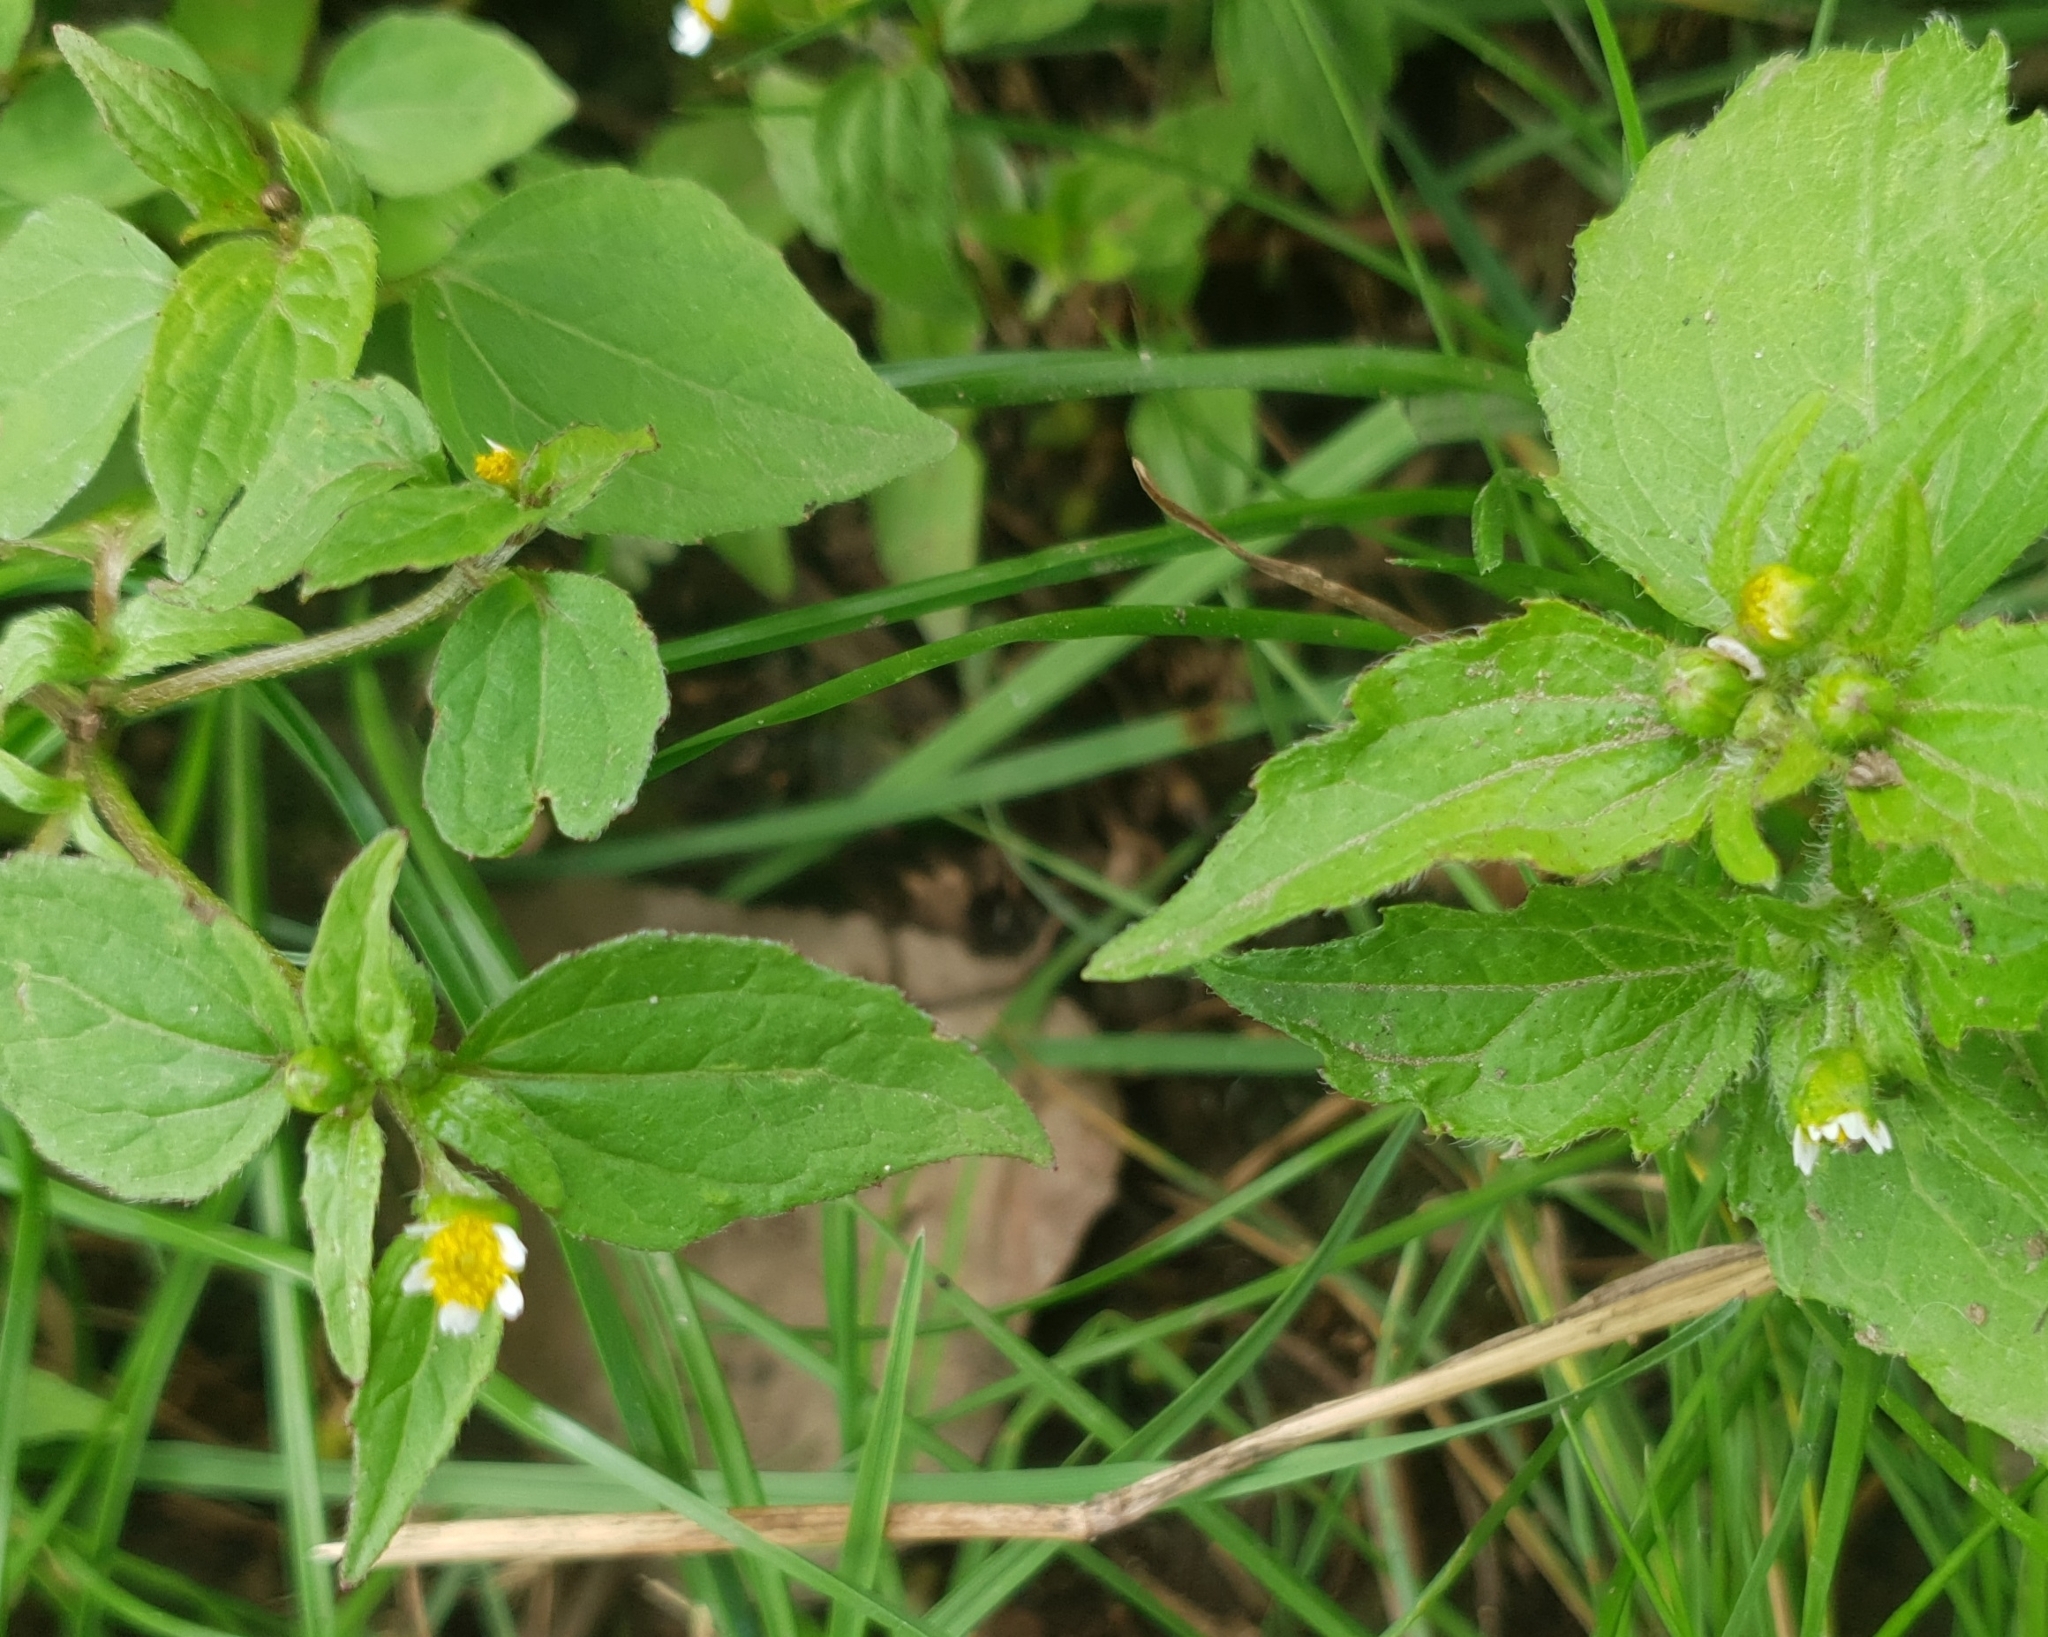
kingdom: Plantae
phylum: Tracheophyta
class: Magnoliopsida
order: Asterales
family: Asteraceae
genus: Galinsoga
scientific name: Galinsoga parviflora
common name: Gallant soldier
